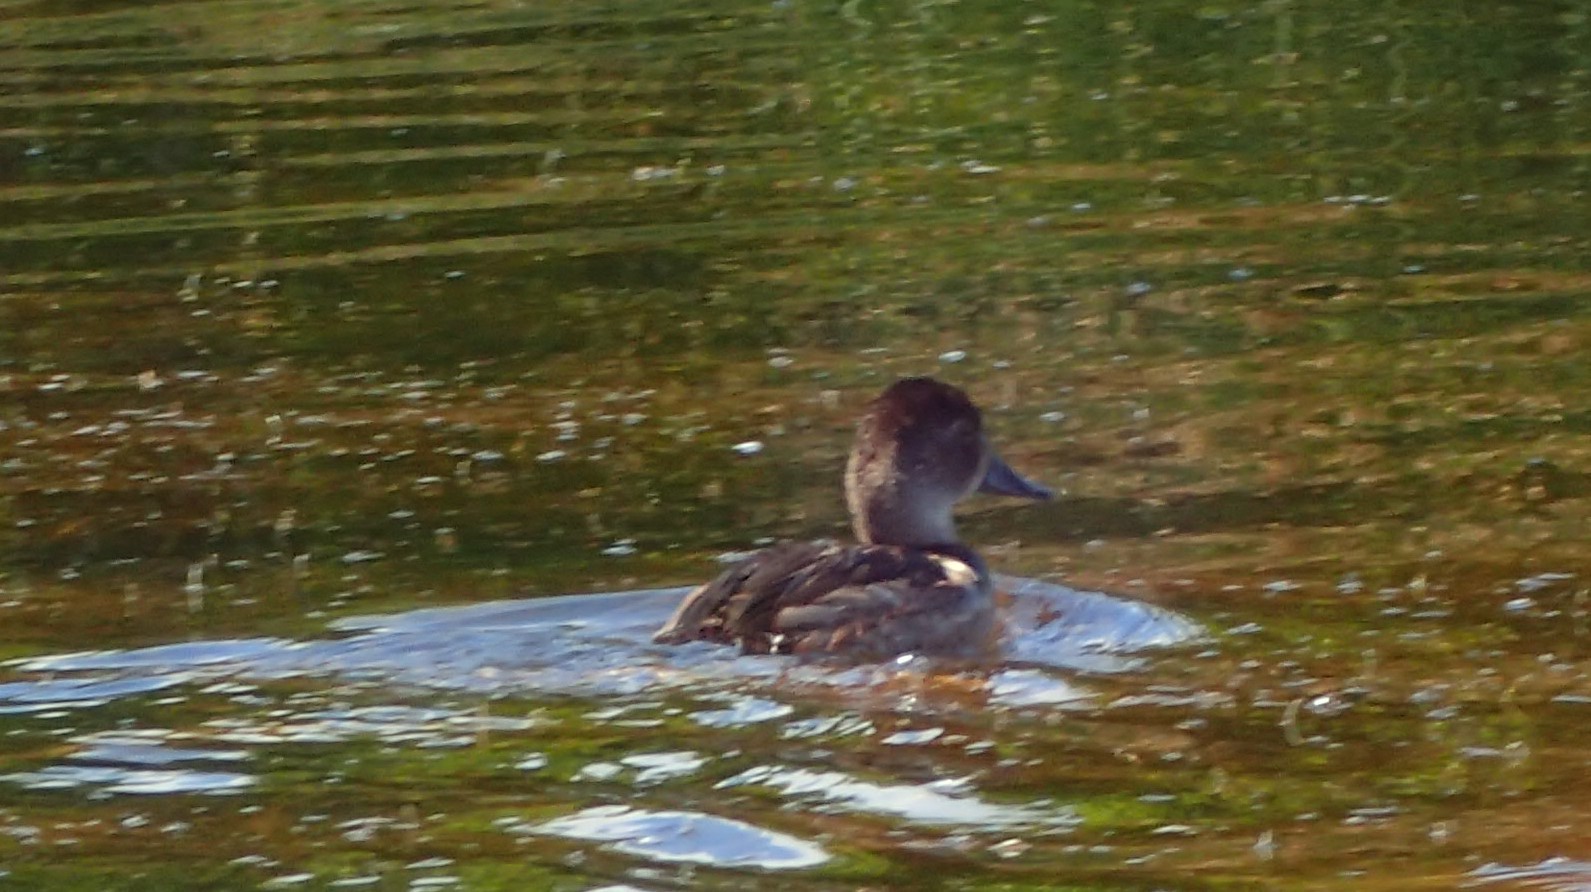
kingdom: Animalia
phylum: Chordata
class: Aves
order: Anseriformes
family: Anatidae
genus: Aythya
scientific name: Aythya collaris
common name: Ring-necked duck
